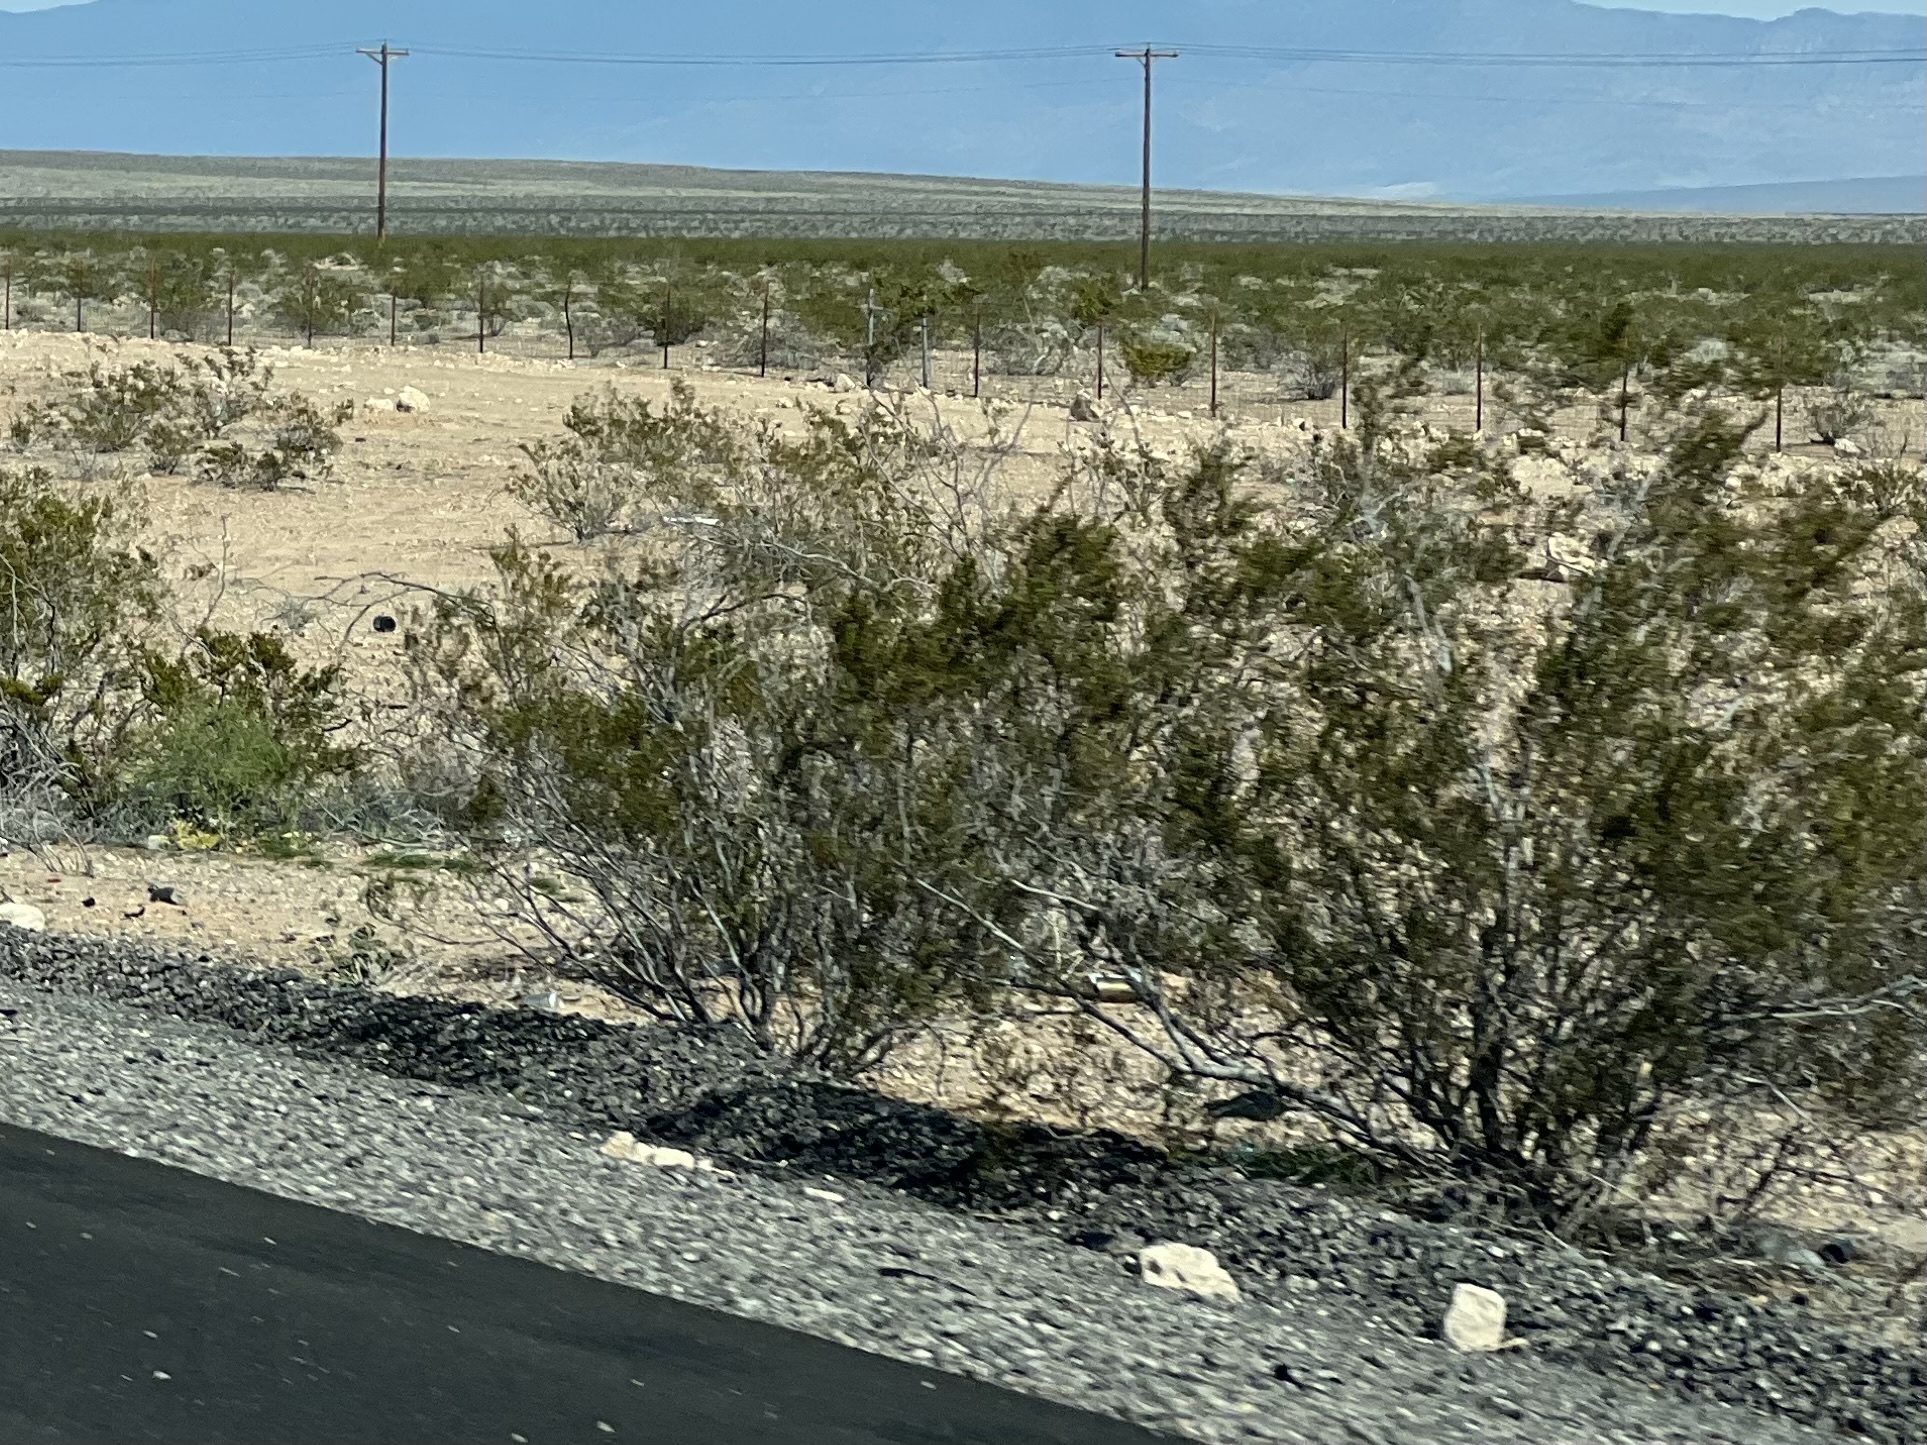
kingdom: Plantae
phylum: Tracheophyta
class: Magnoliopsida
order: Zygophyllales
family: Zygophyllaceae
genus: Larrea
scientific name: Larrea tridentata
